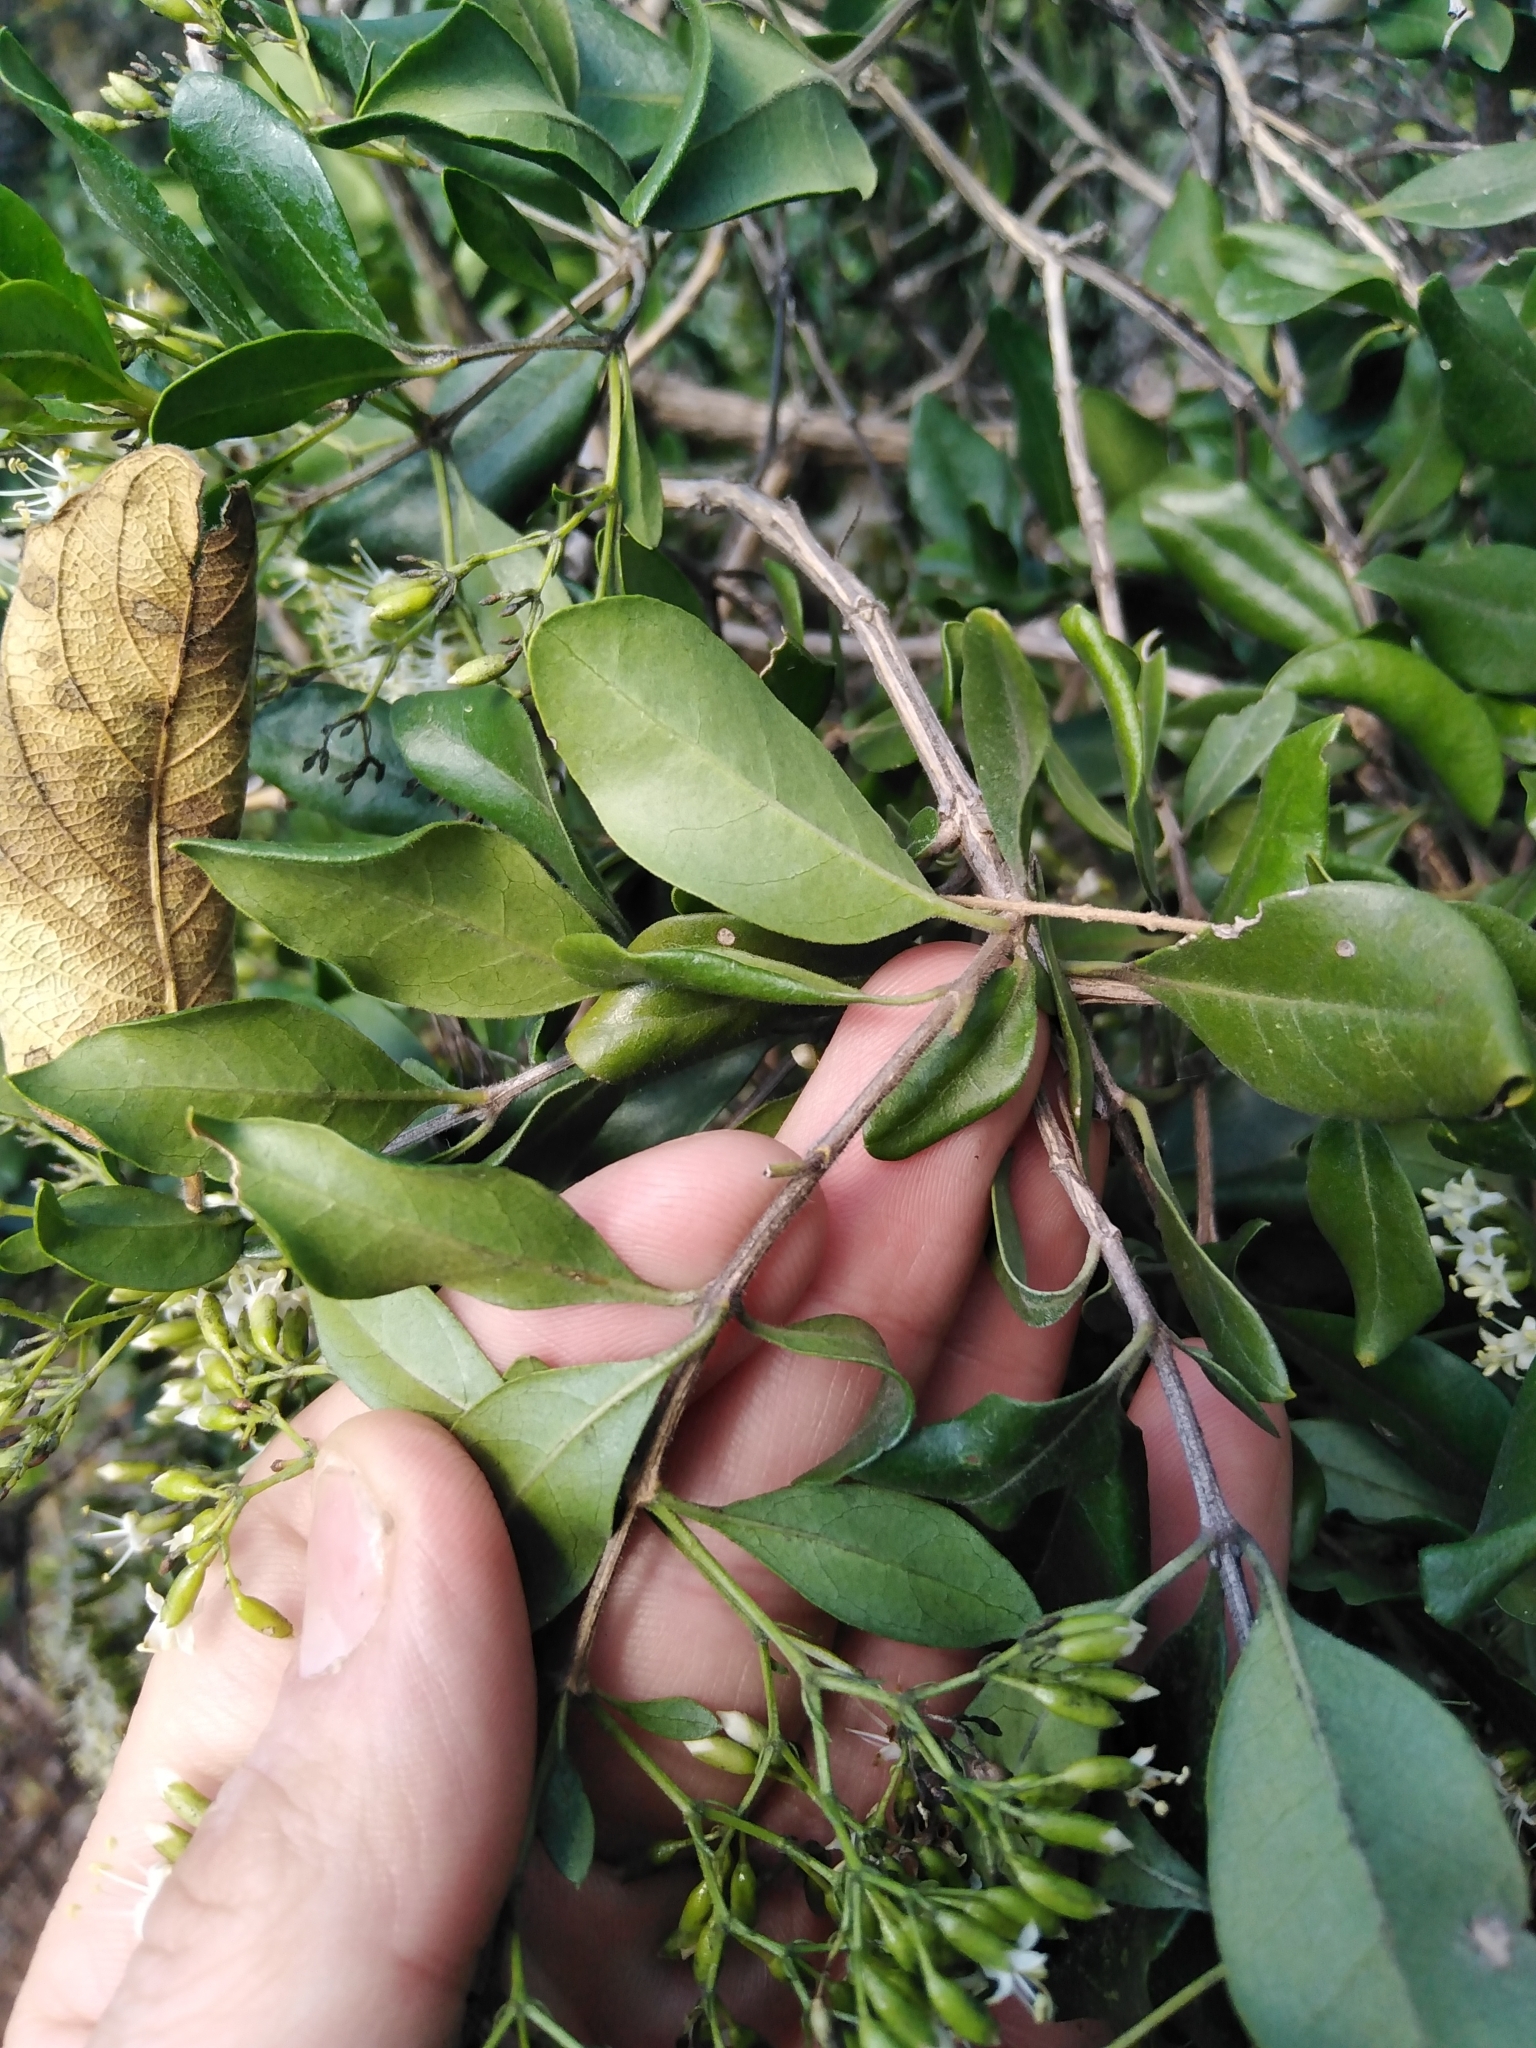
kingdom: Plantae
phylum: Tracheophyta
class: Magnoliopsida
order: Lamiales
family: Stilbaceae
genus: Nuxia
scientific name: Nuxia congesta
